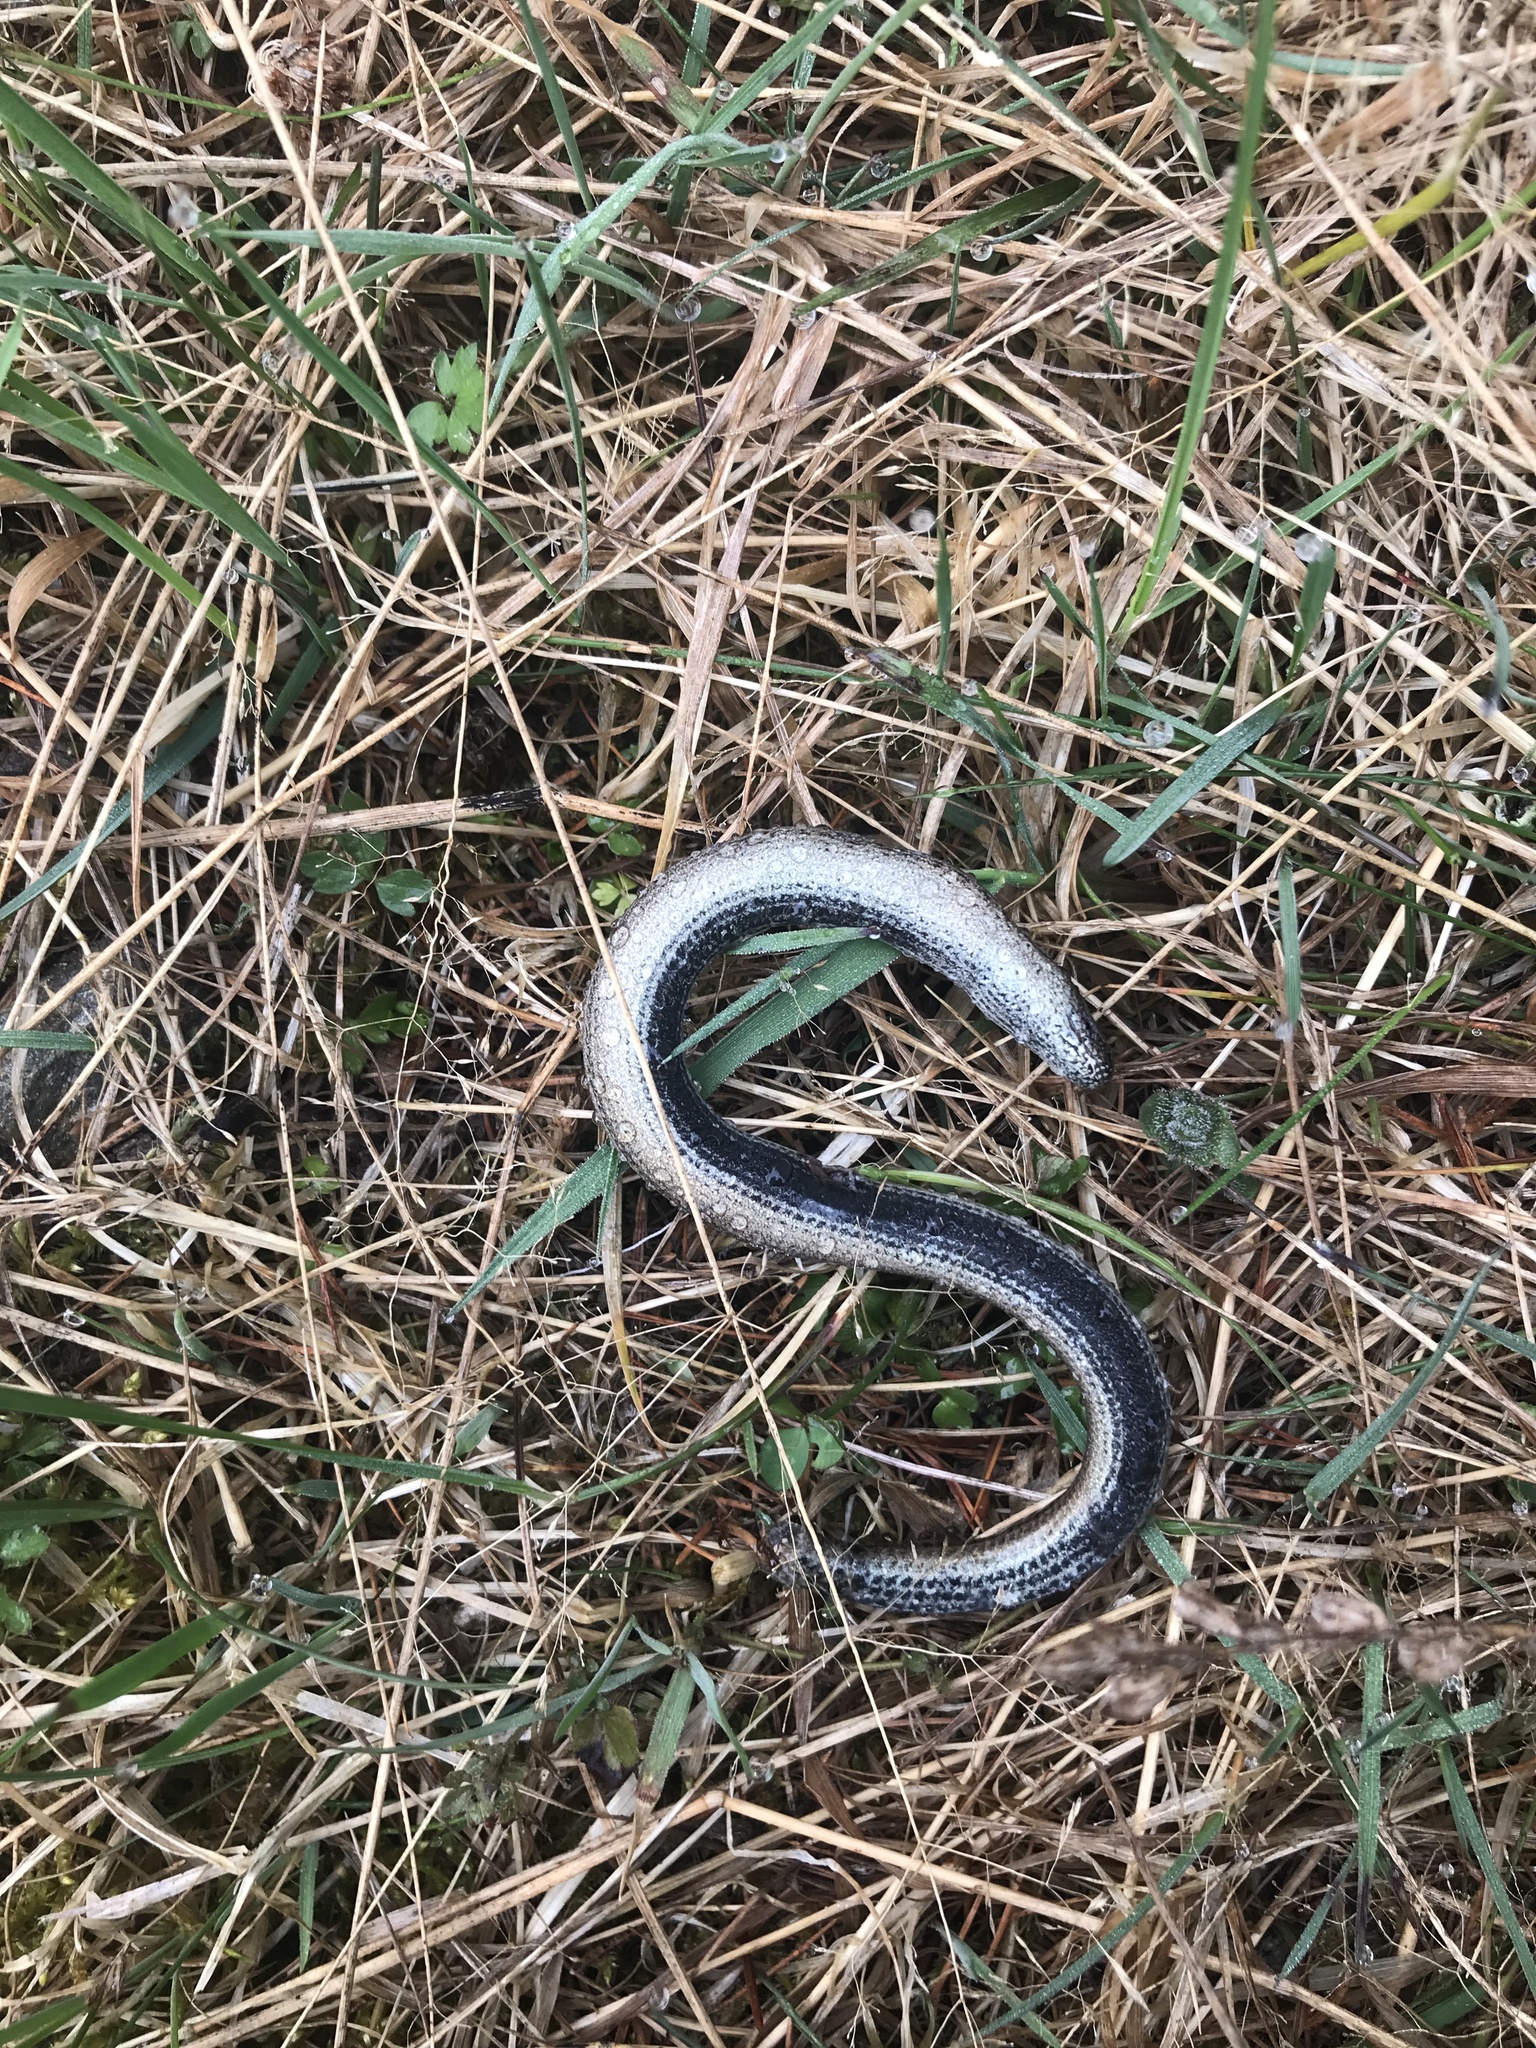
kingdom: Animalia
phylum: Chordata
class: Squamata
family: Anguidae
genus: Anguis
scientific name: Anguis fragilis
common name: Slow worm
